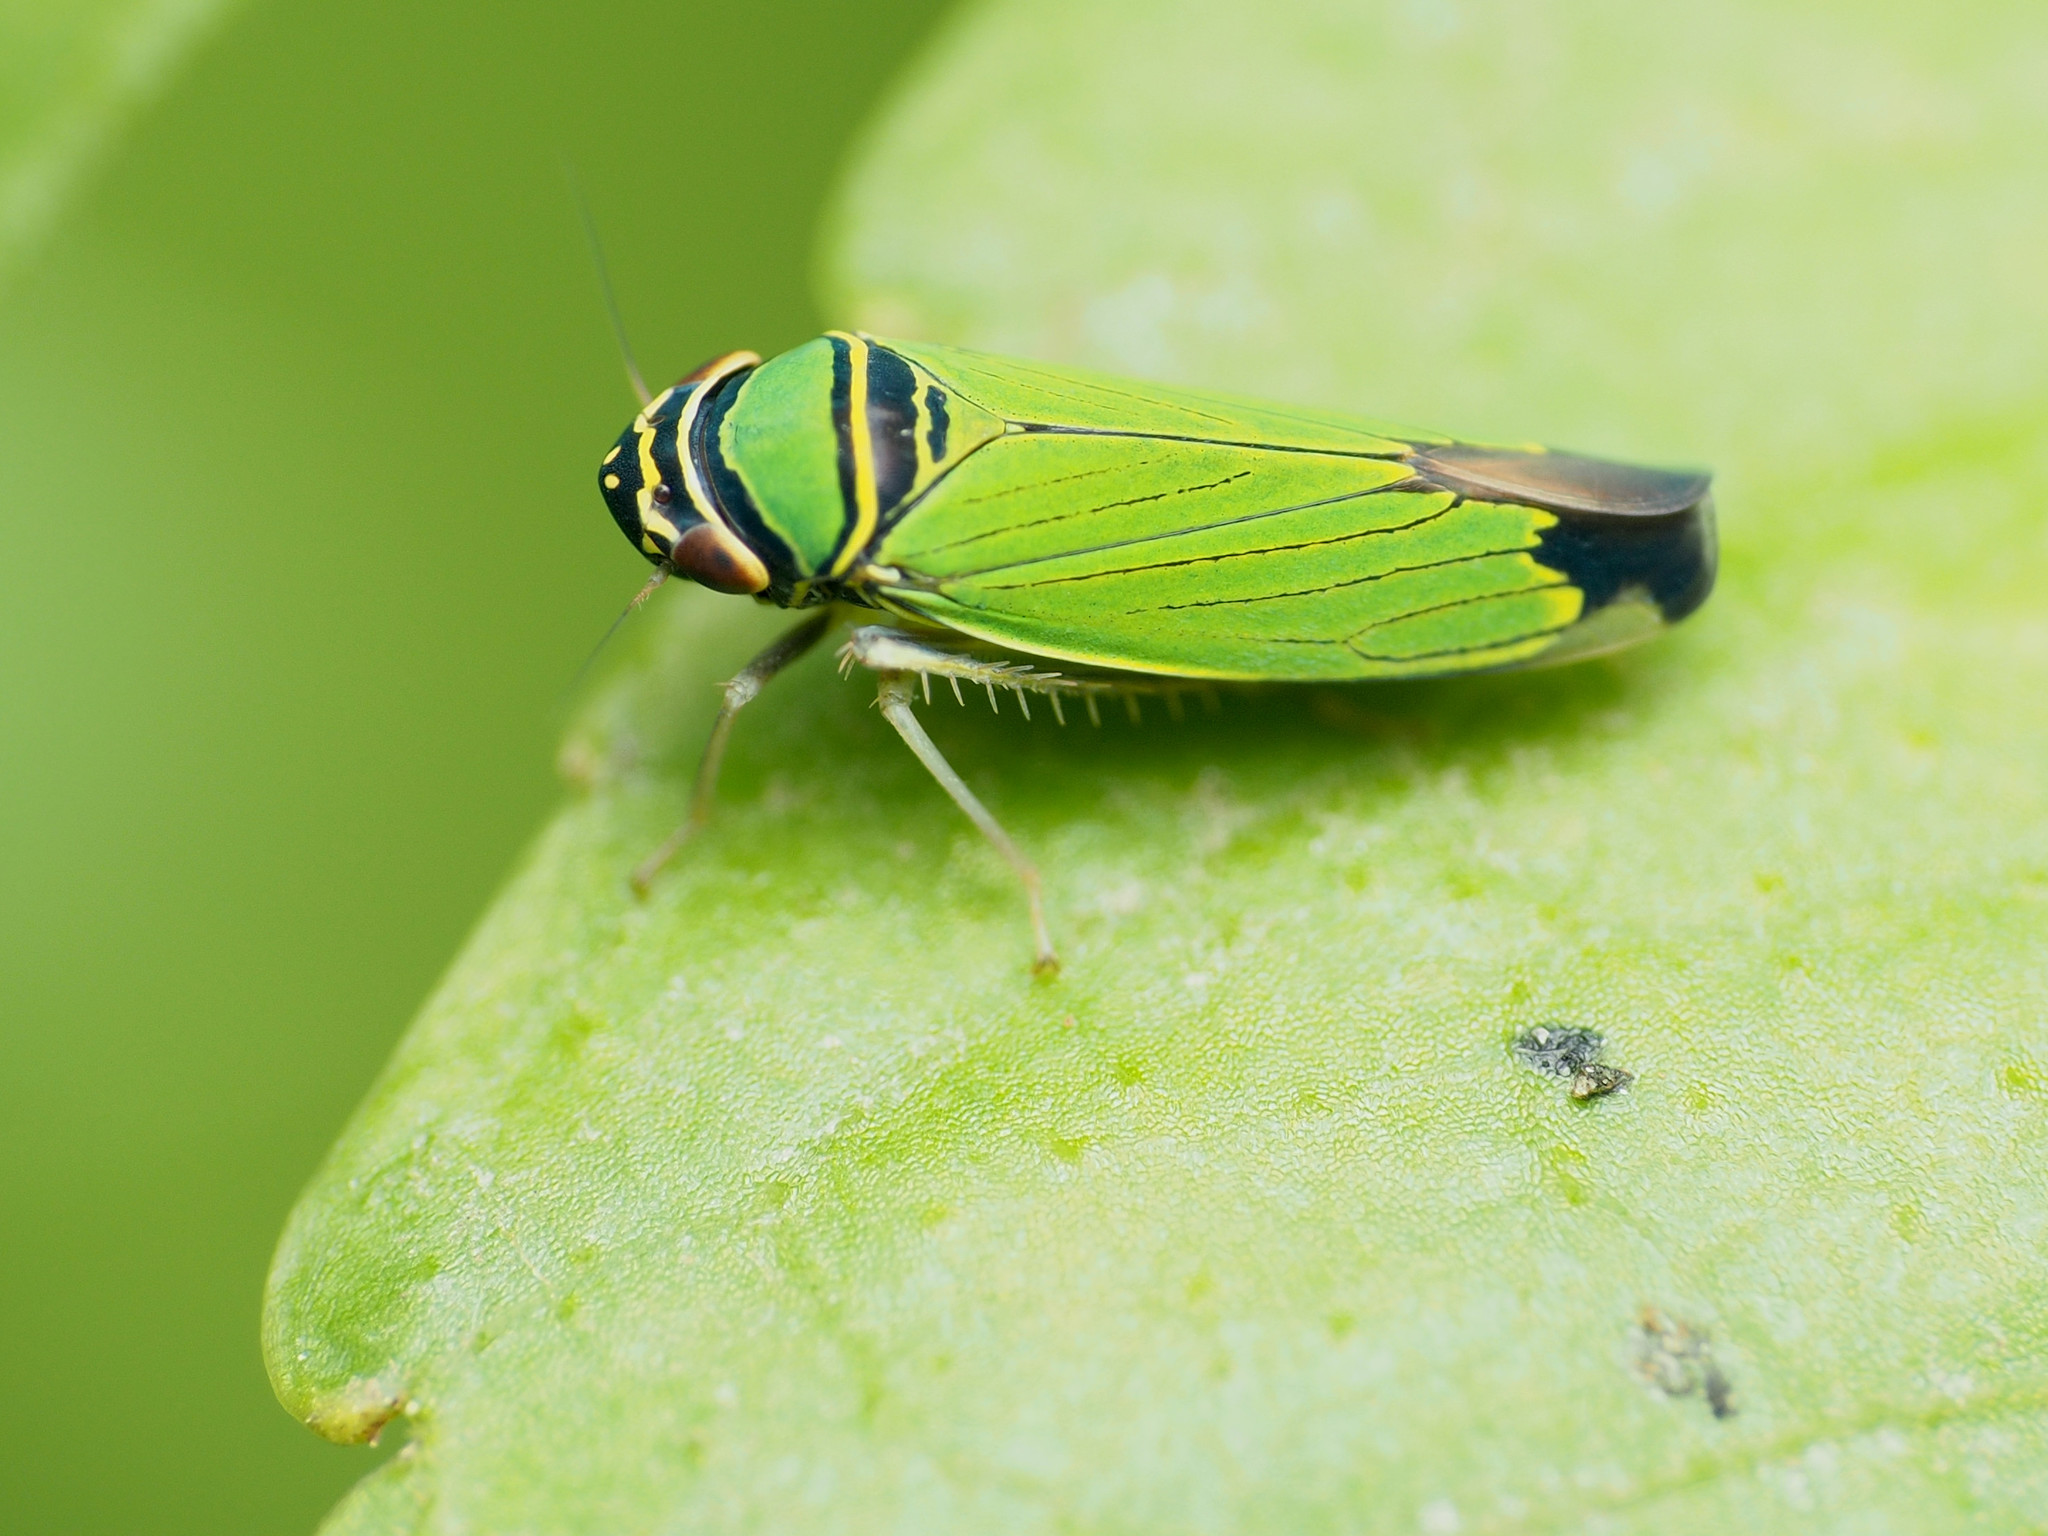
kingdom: Animalia
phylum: Arthropoda
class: Insecta
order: Hemiptera
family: Cicadellidae
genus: Tylozygus
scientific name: Tylozygus geometricus
